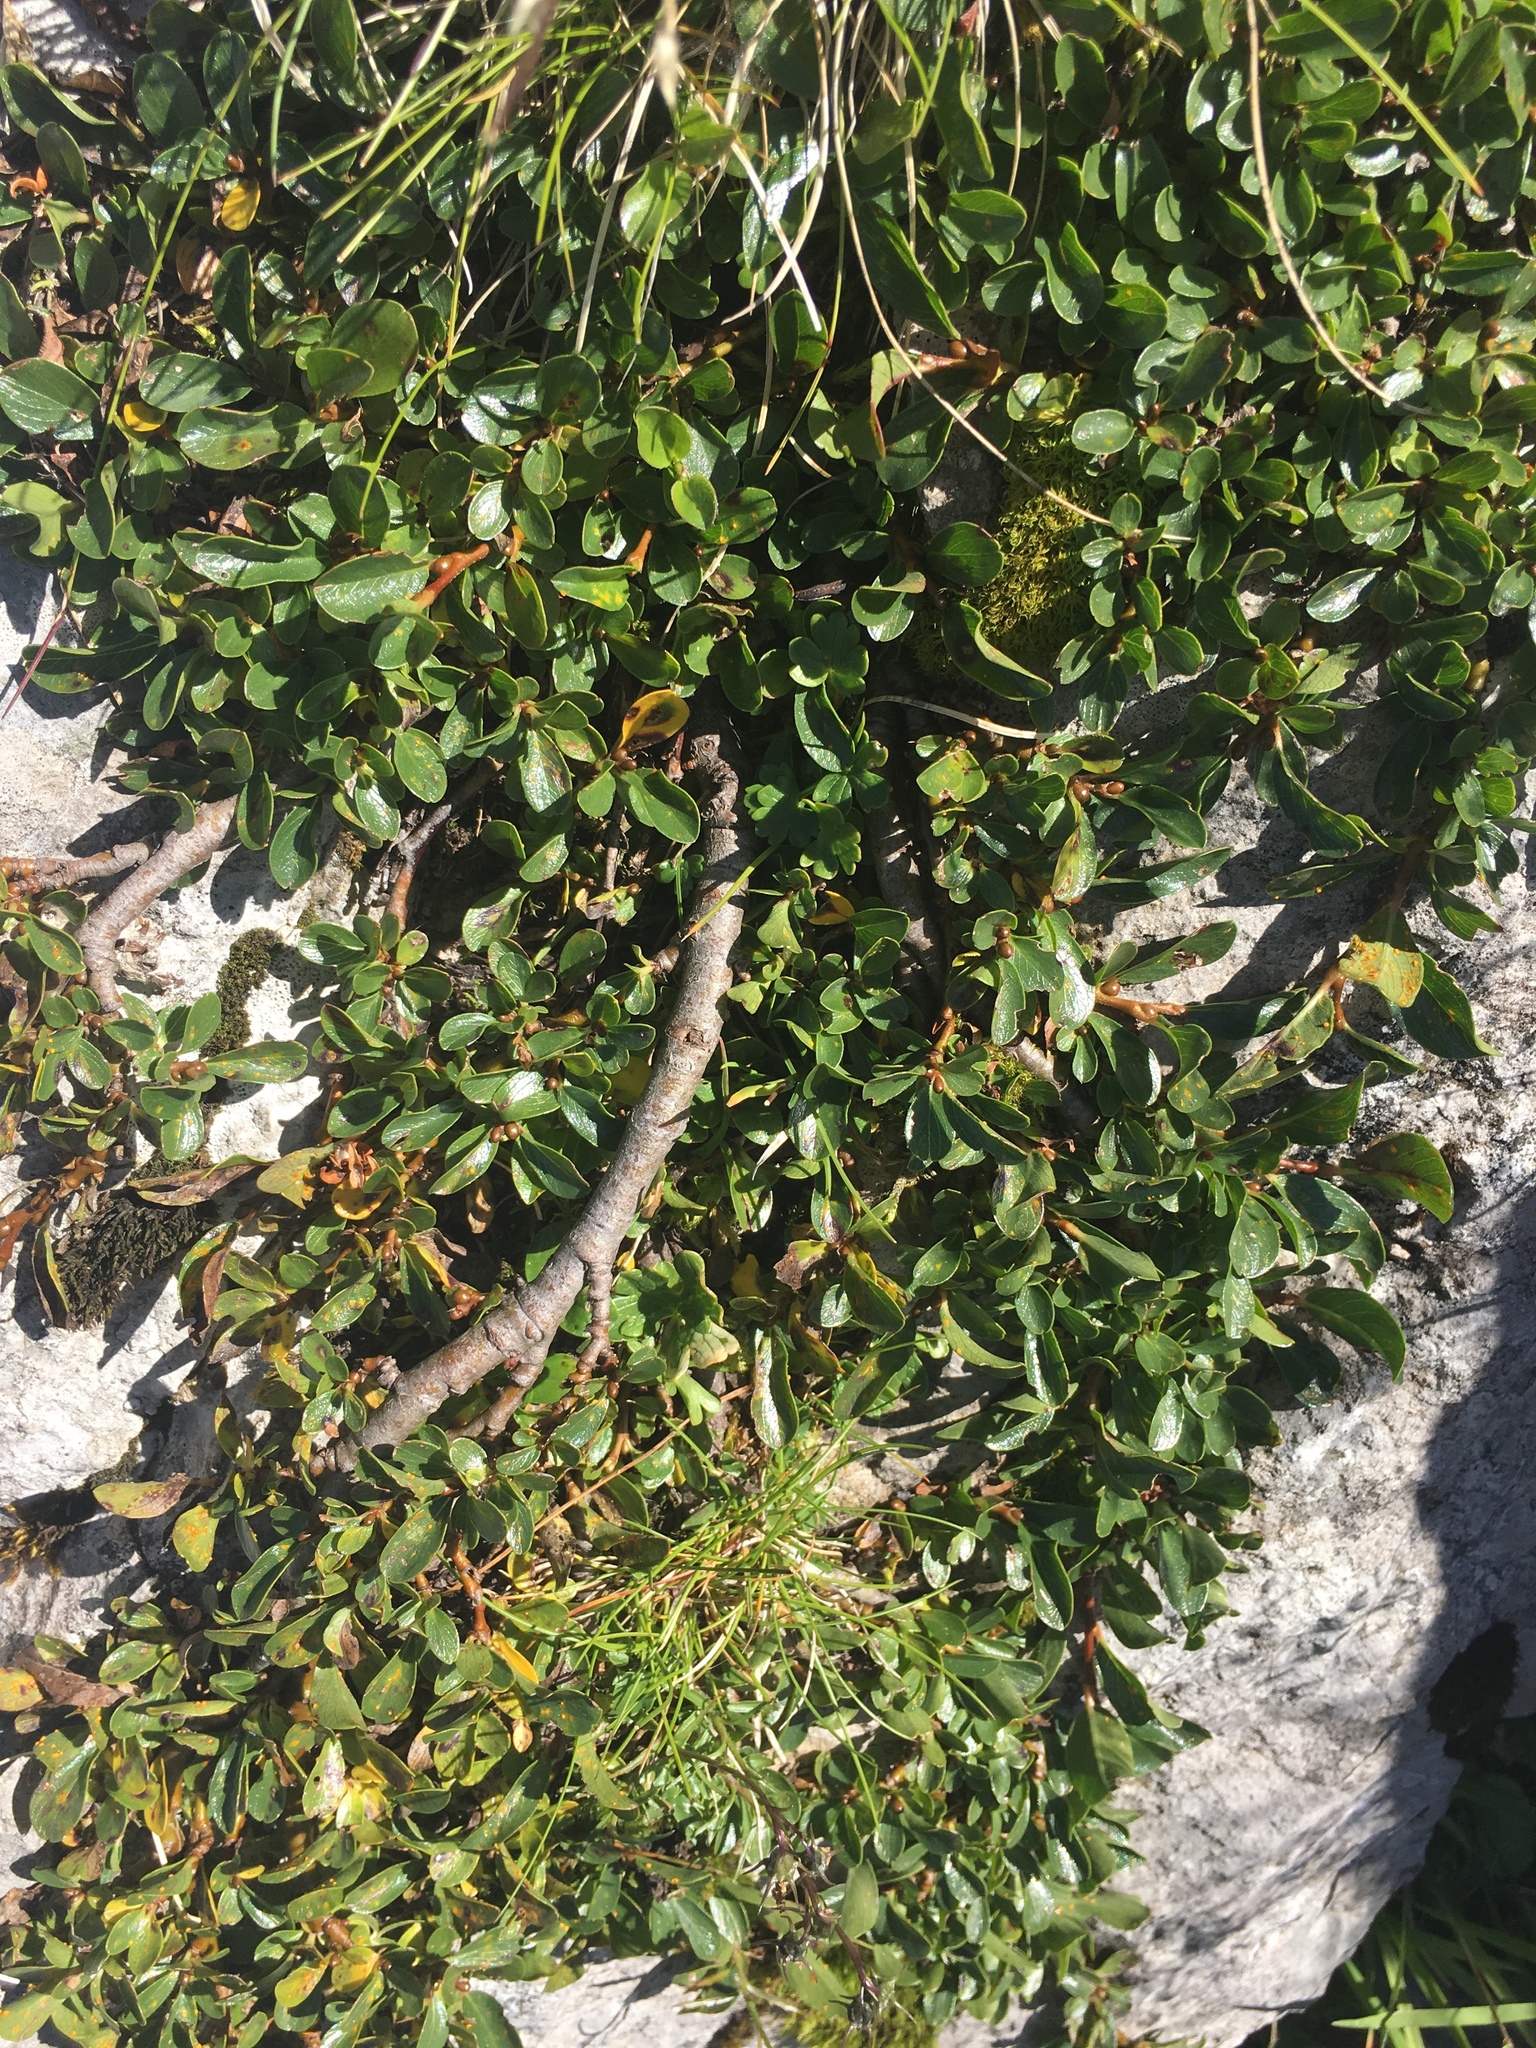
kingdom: Plantae
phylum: Tracheophyta
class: Magnoliopsida
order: Malpighiales
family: Salicaceae
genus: Salix
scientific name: Salix retusa
